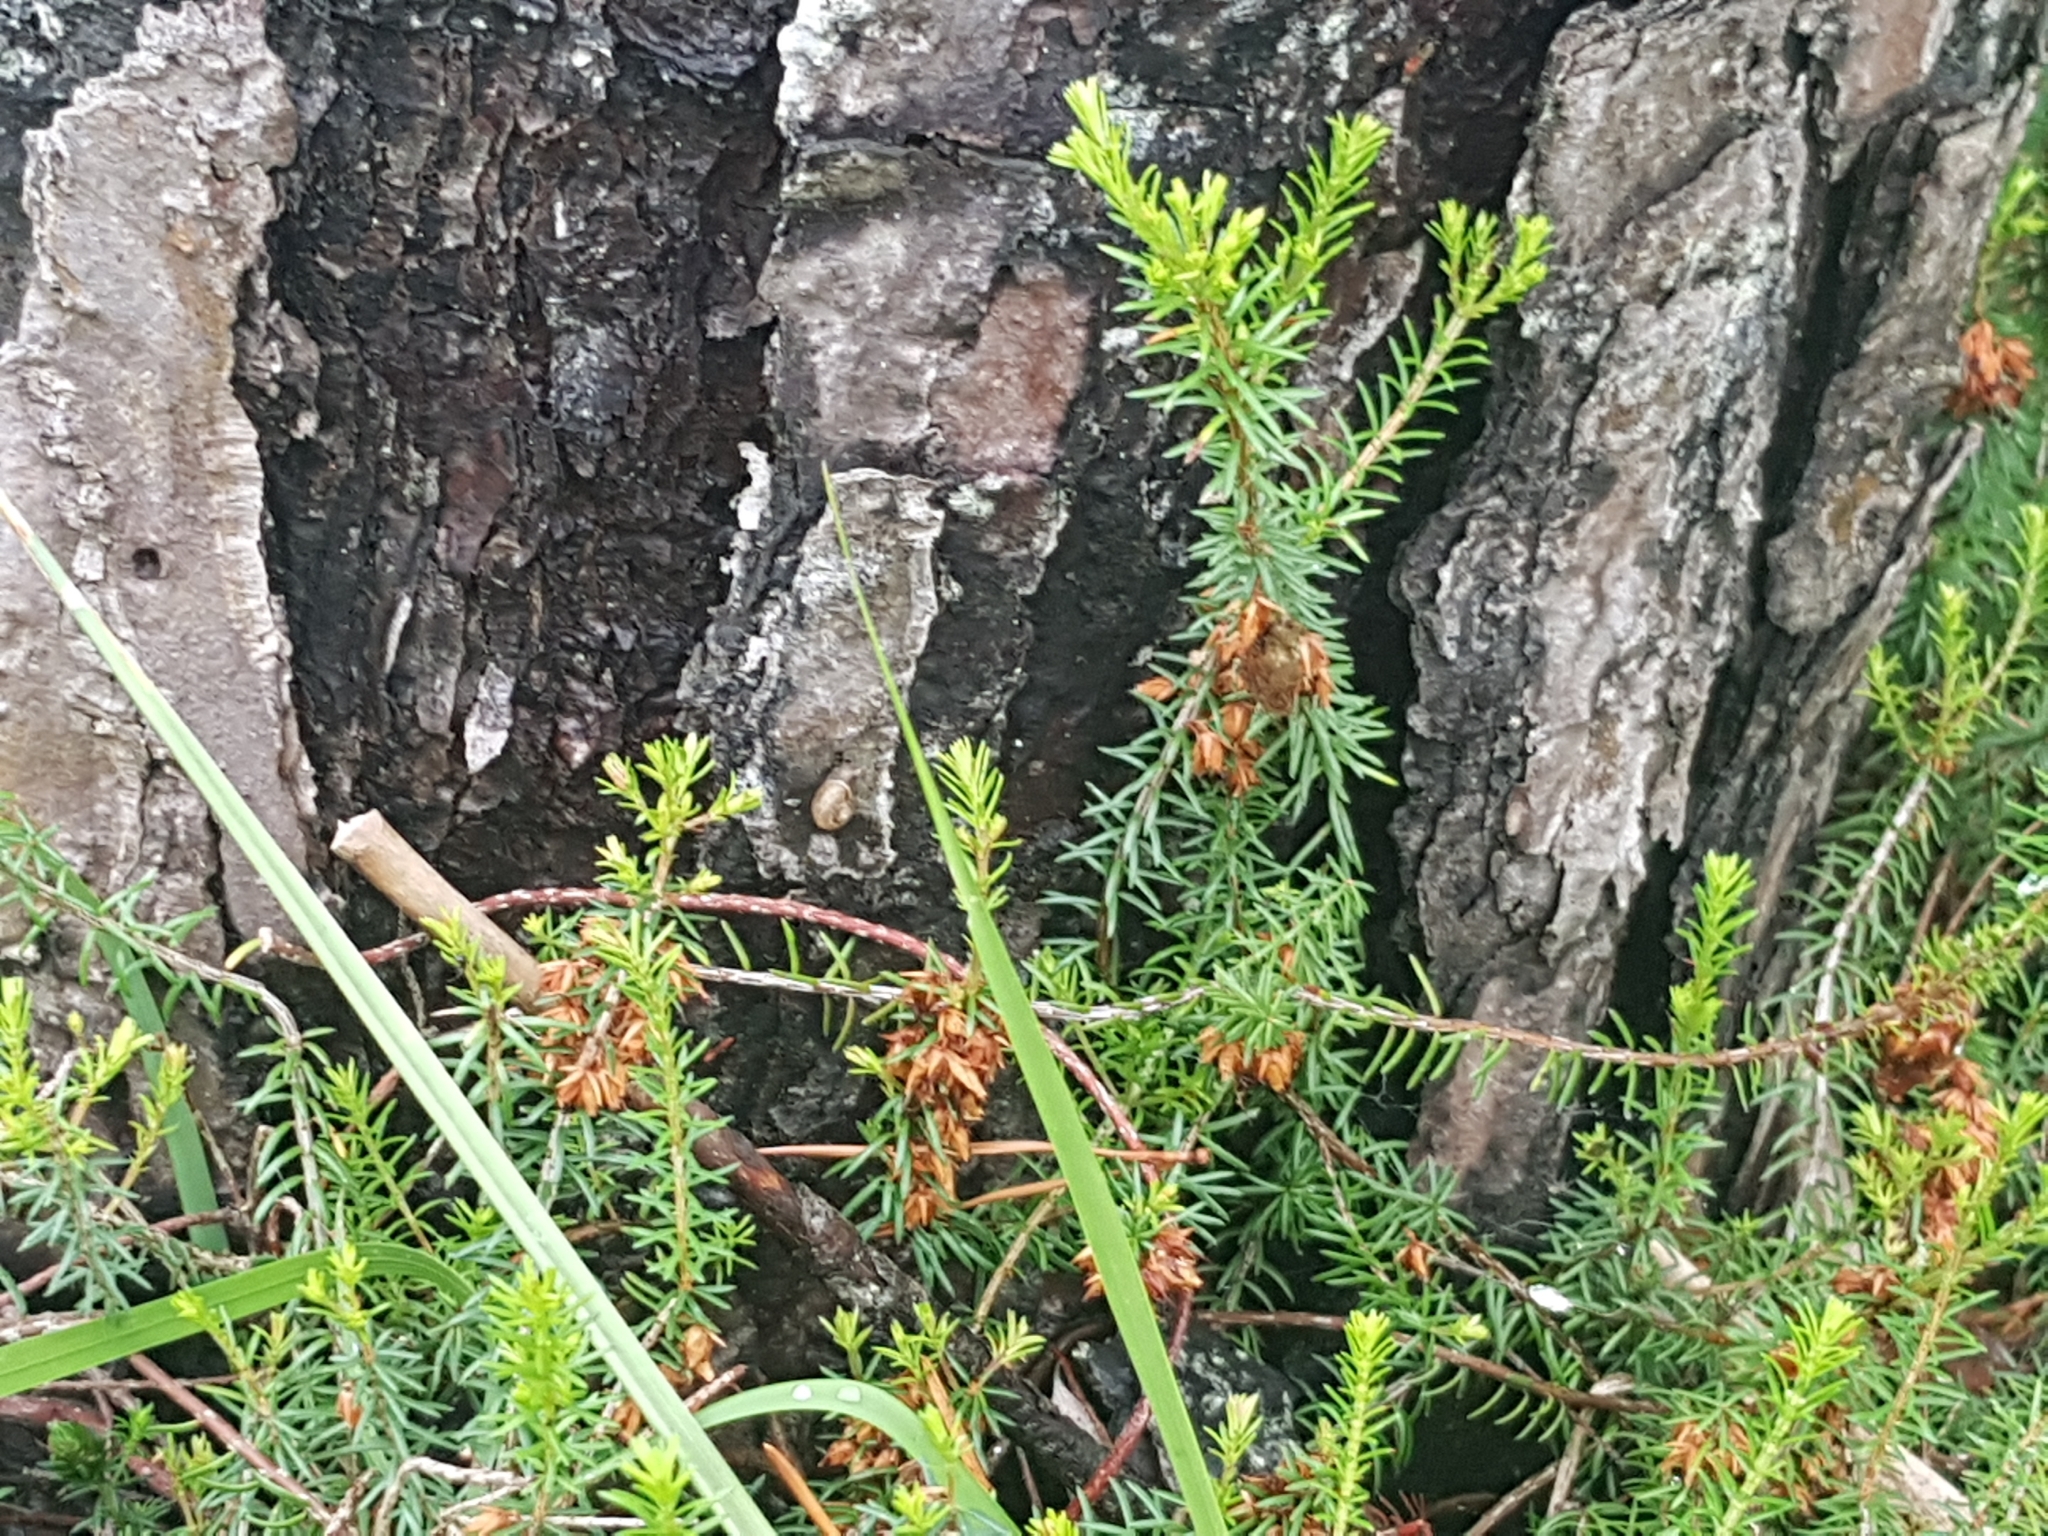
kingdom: Plantae
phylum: Tracheophyta
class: Magnoliopsida
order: Ericales
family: Ericaceae
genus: Erica
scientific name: Erica carnea
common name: Winter heath
